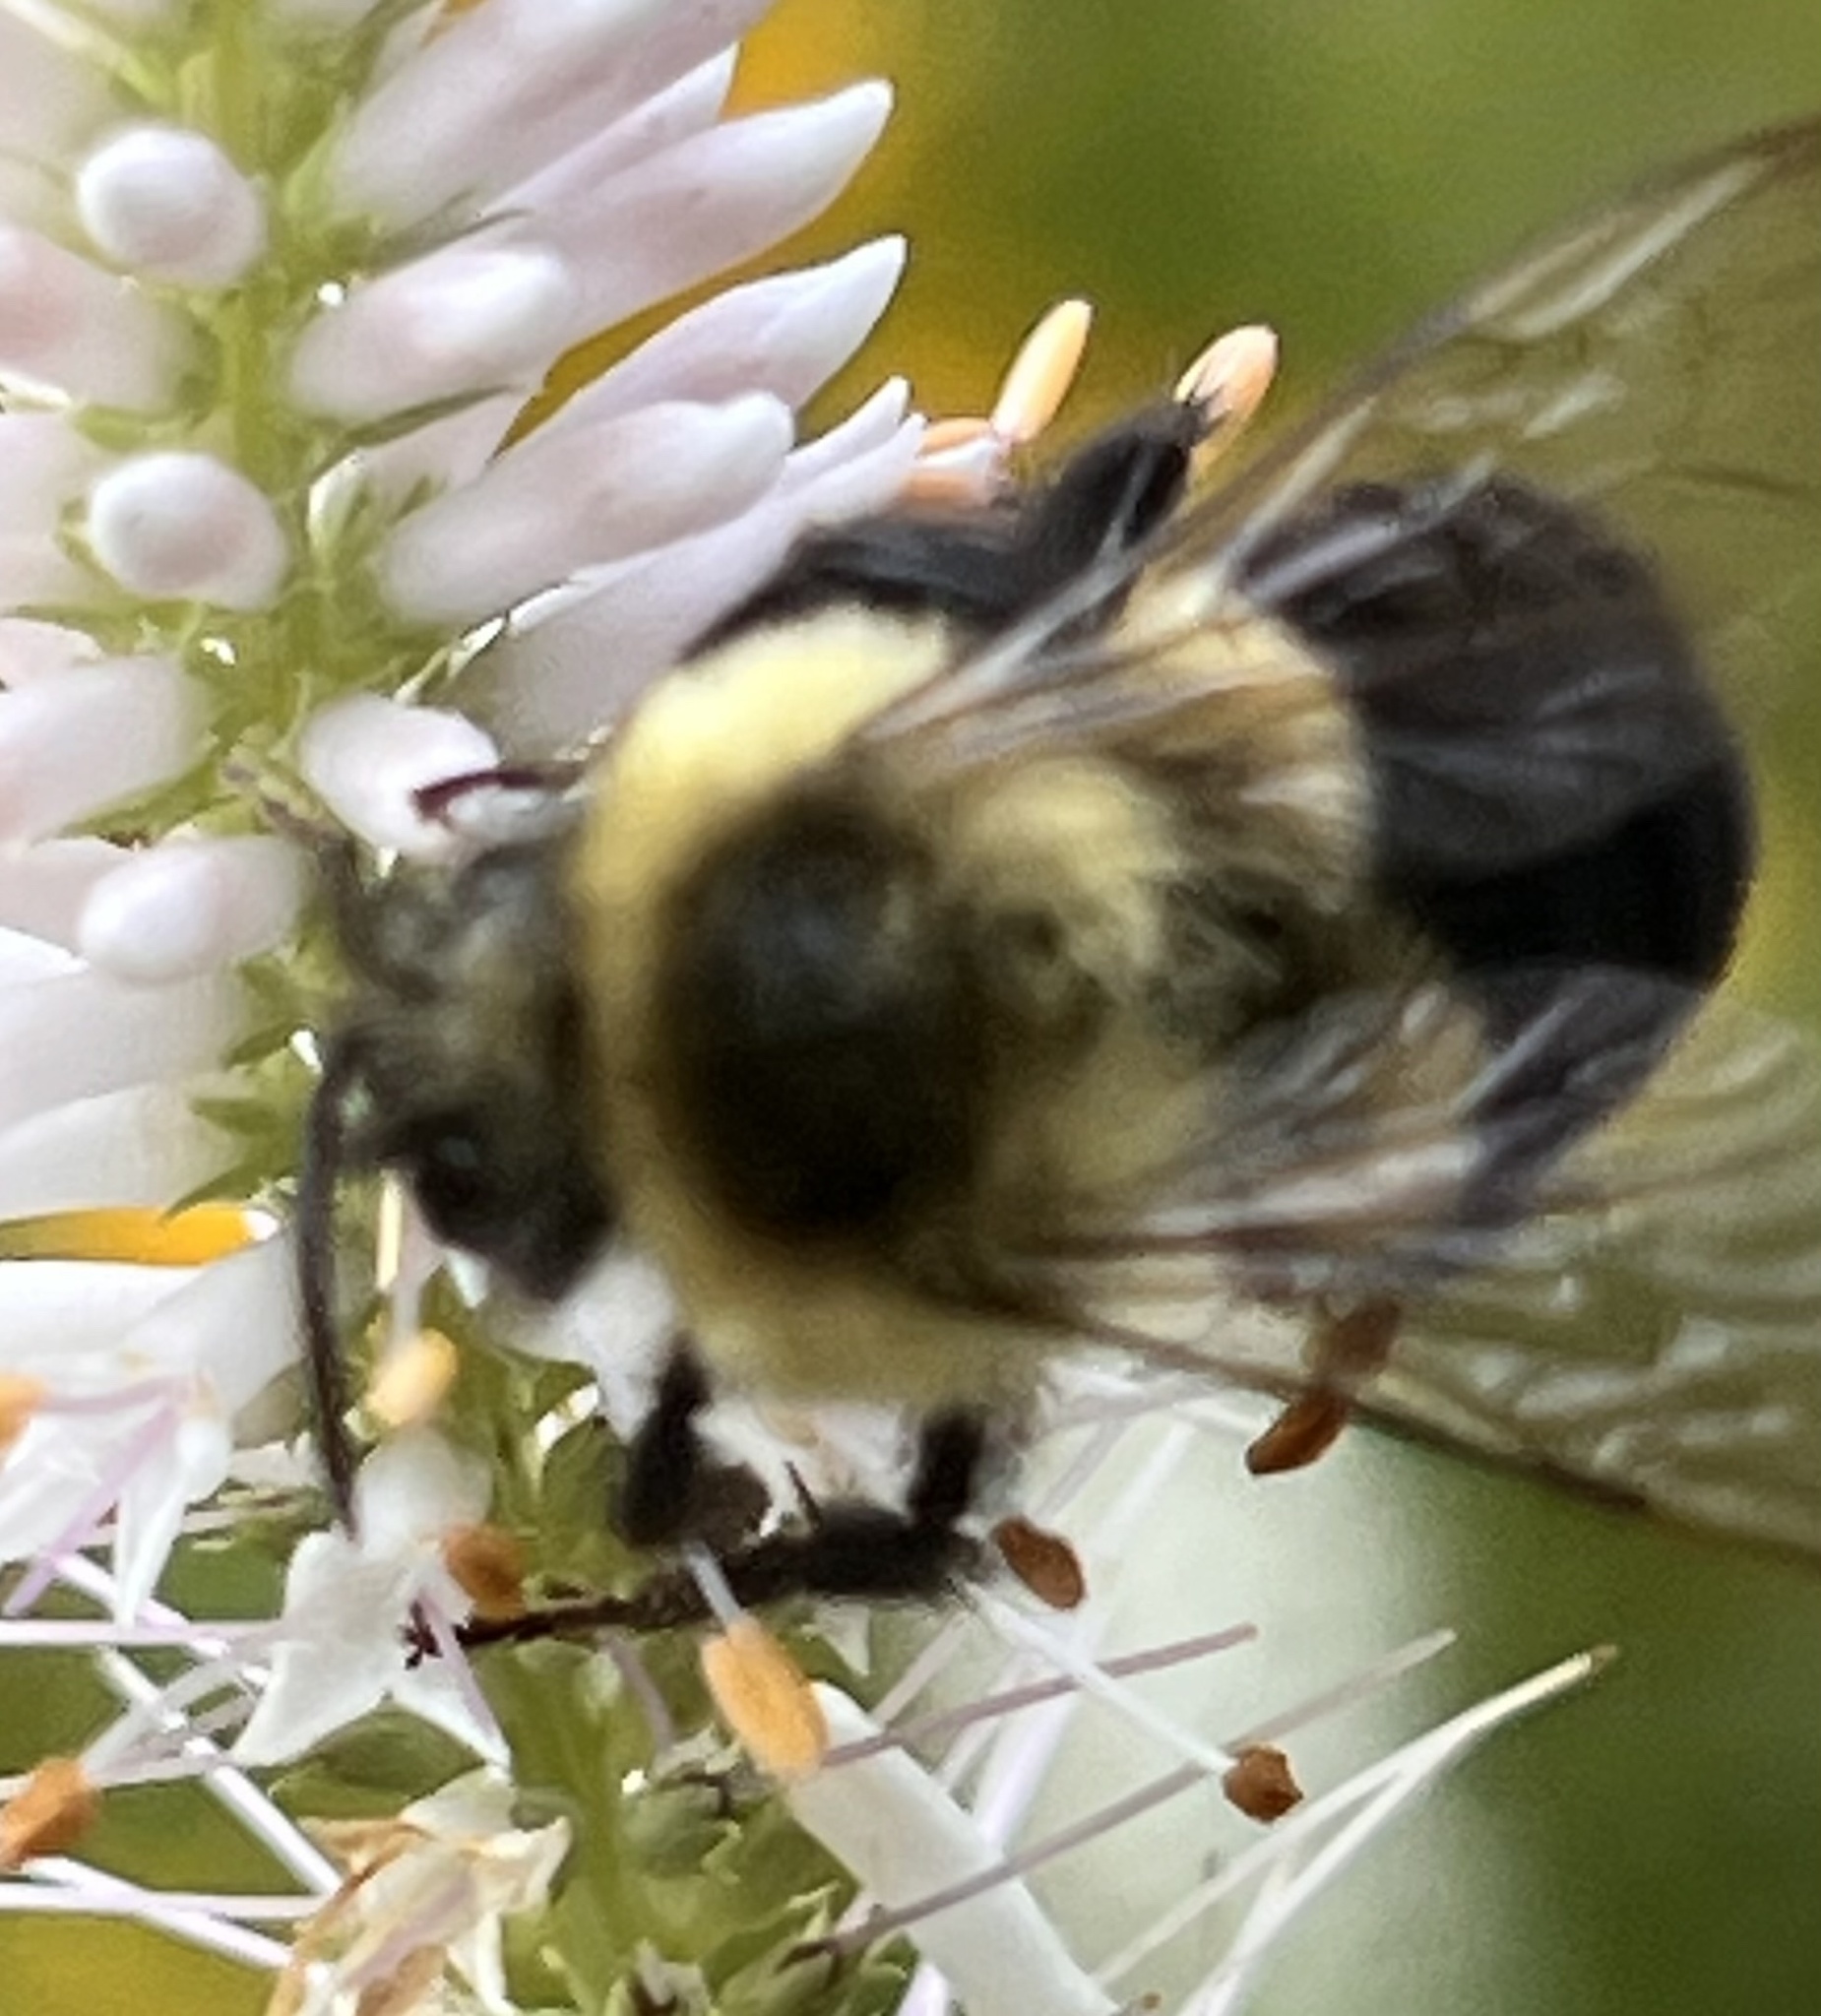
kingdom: Animalia
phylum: Arthropoda
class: Insecta
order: Hymenoptera
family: Apidae
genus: Bombus
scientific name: Bombus impatiens
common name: Common eastern bumble bee
